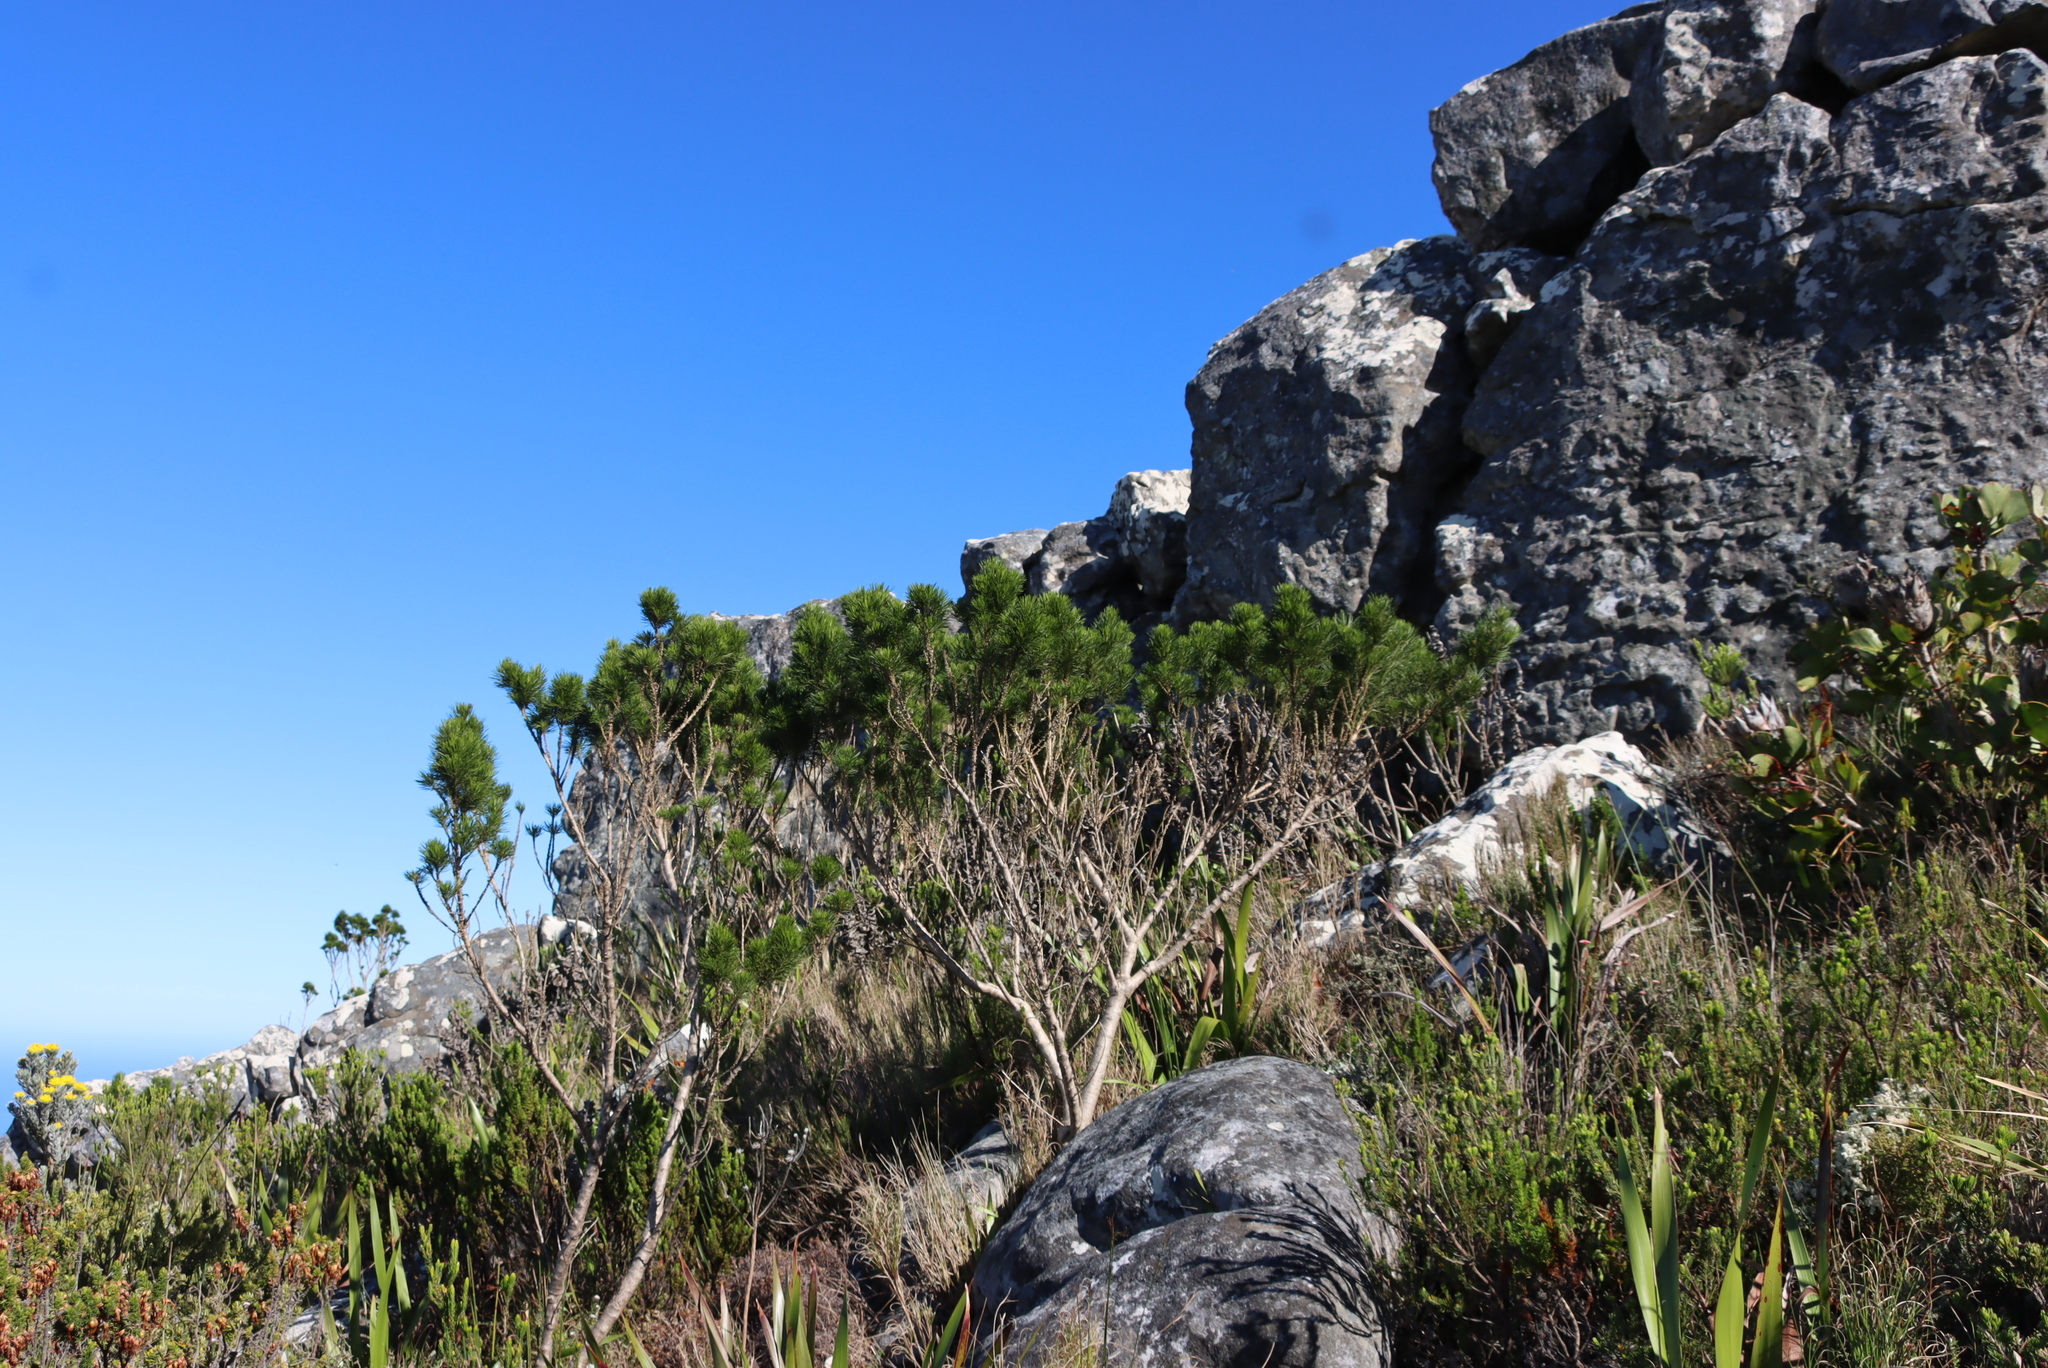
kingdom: Plantae
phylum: Tracheophyta
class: Magnoliopsida
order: Fabales
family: Fabaceae
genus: Psoralea
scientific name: Psoralea pinnata
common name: African scurfpea
